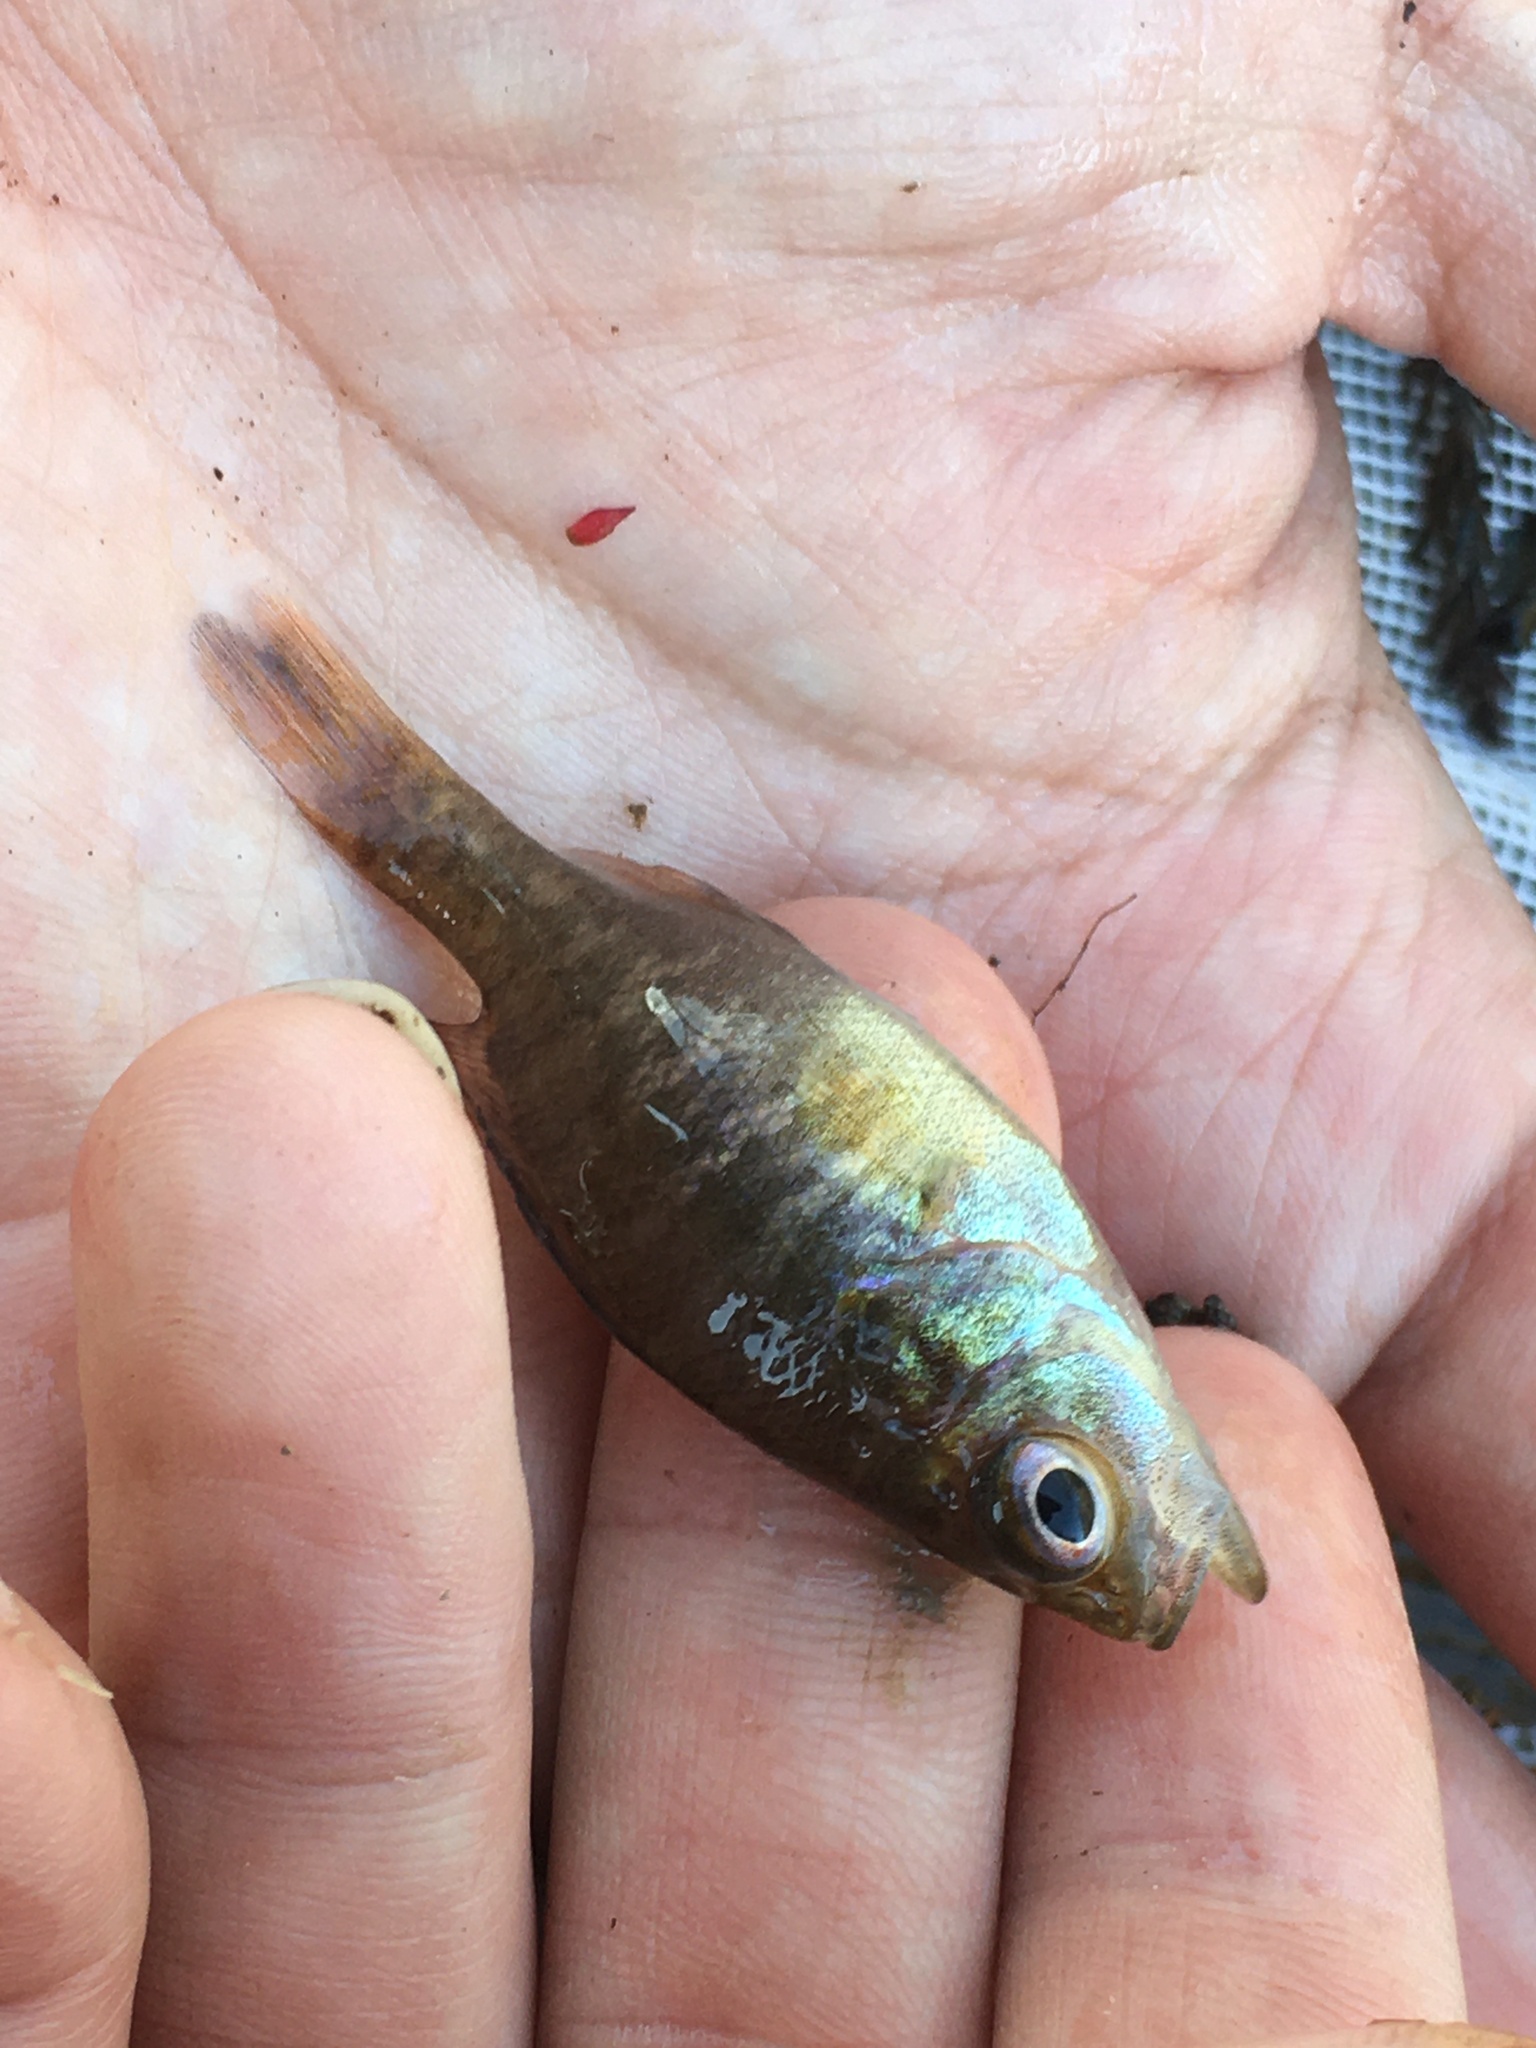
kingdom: Animalia
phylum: Chordata
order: Perciformes
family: Centrarchidae
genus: Lepomis
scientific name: Lepomis gulosus
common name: Warmouth
